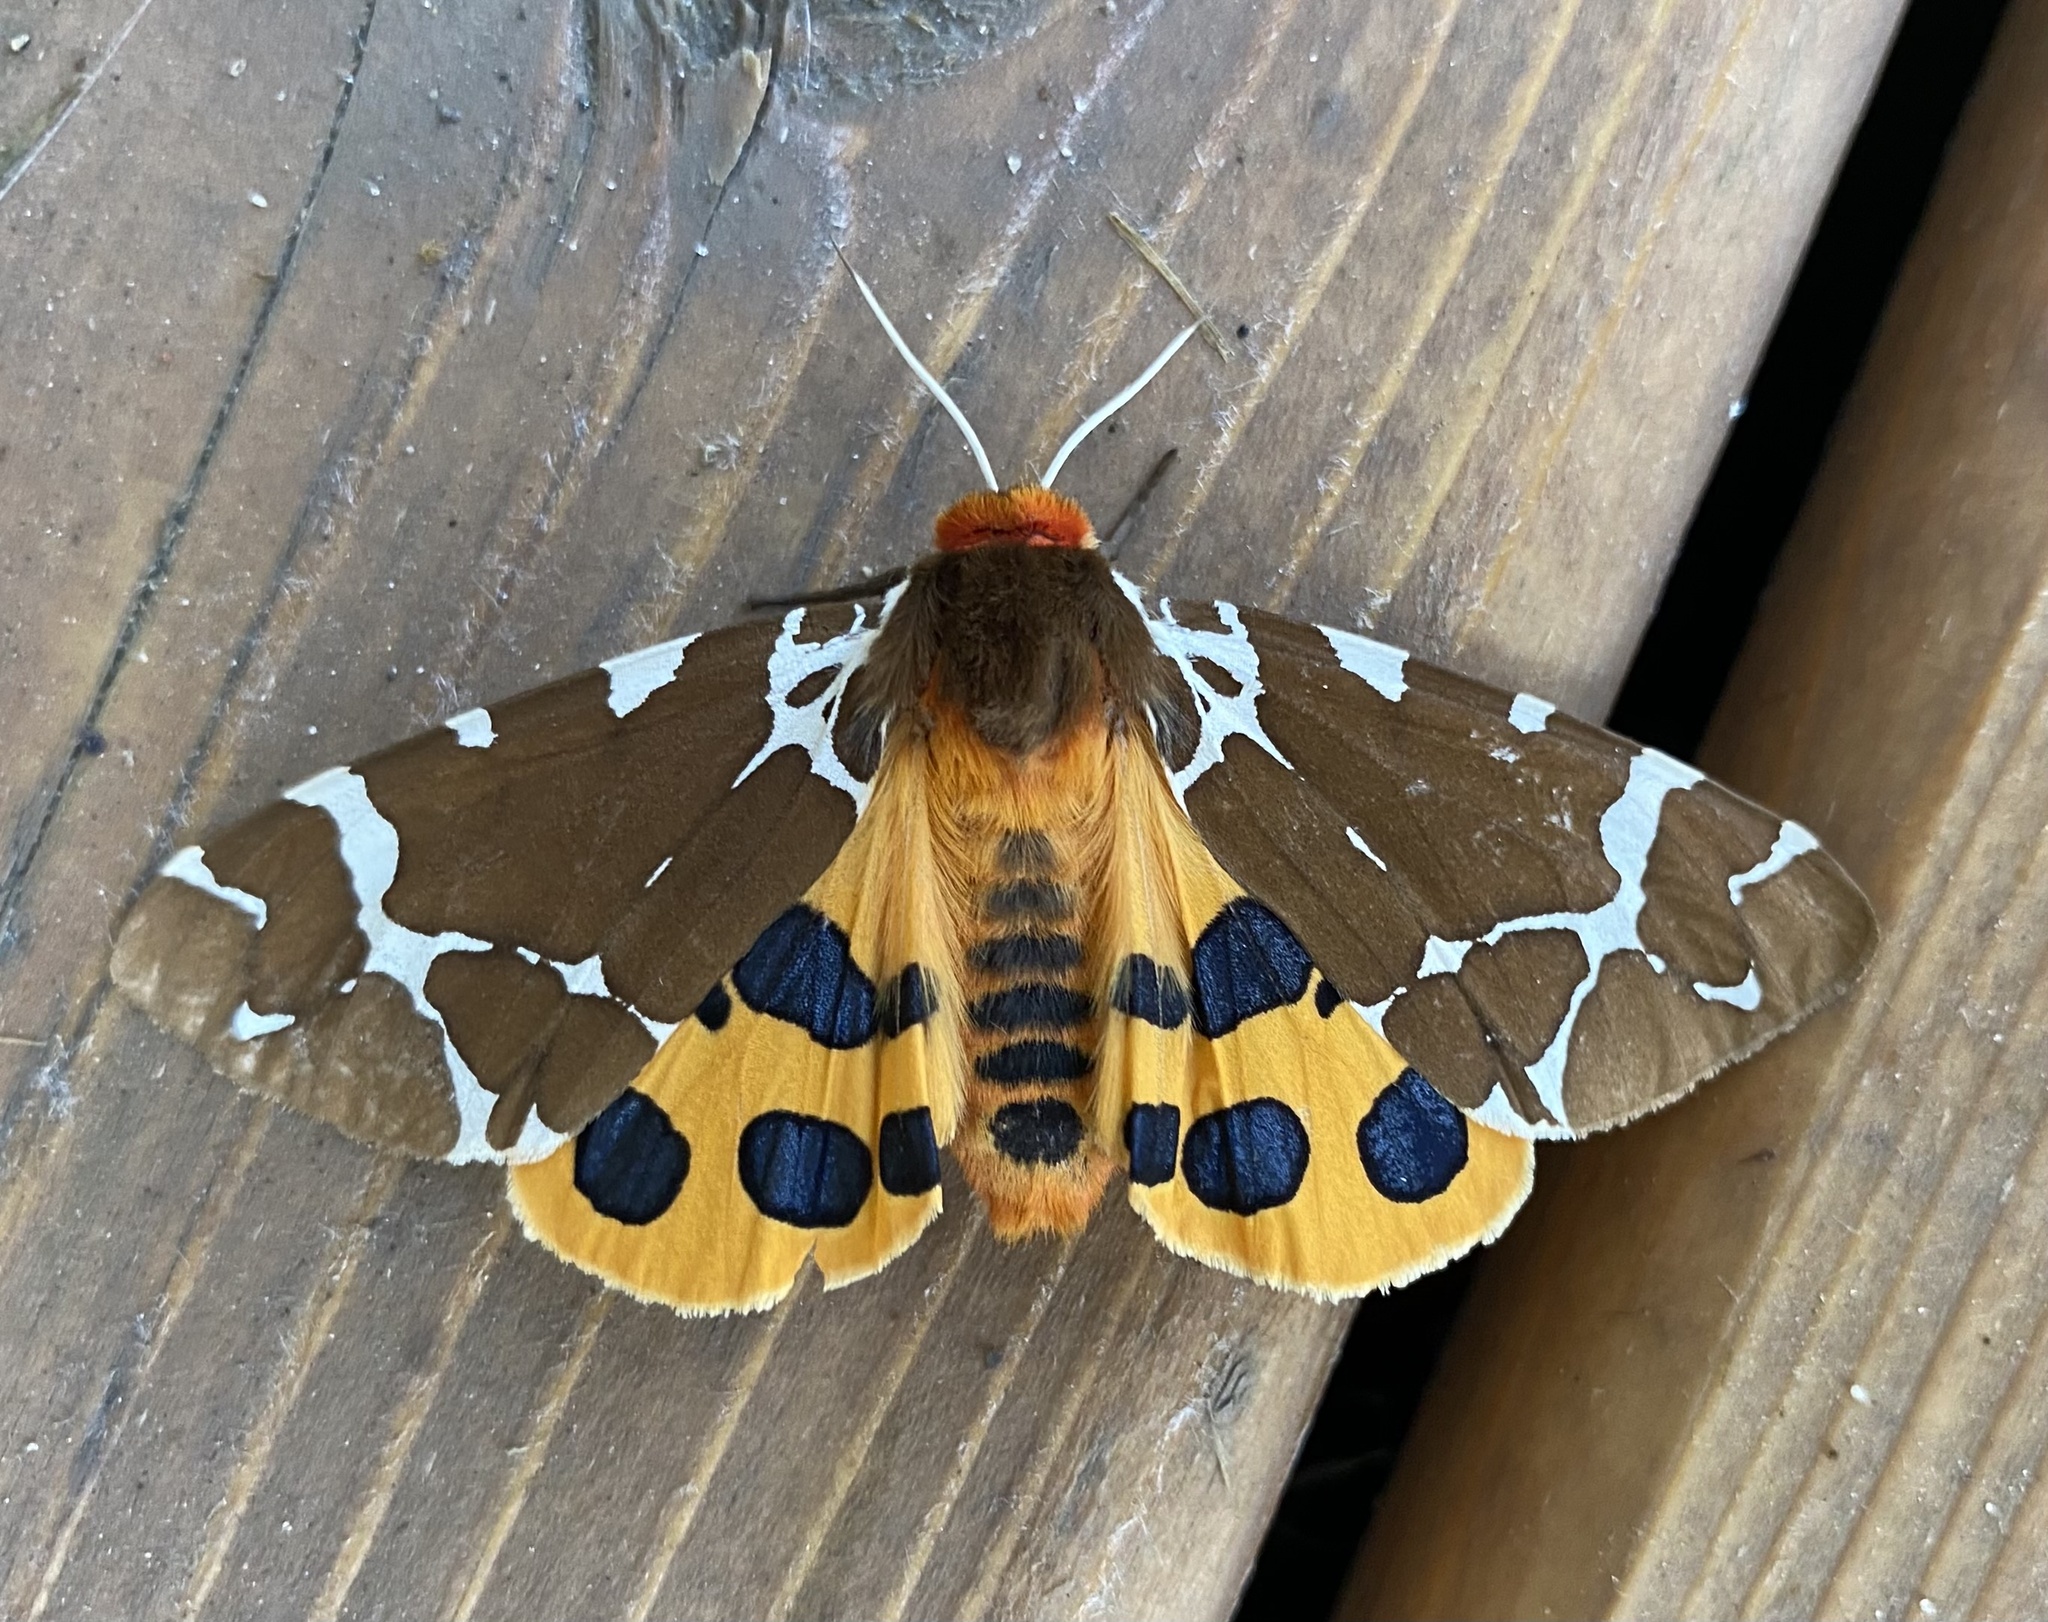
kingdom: Animalia
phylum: Arthropoda
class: Insecta
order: Lepidoptera
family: Erebidae
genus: Arctia
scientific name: Arctia caja
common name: Garden tiger
